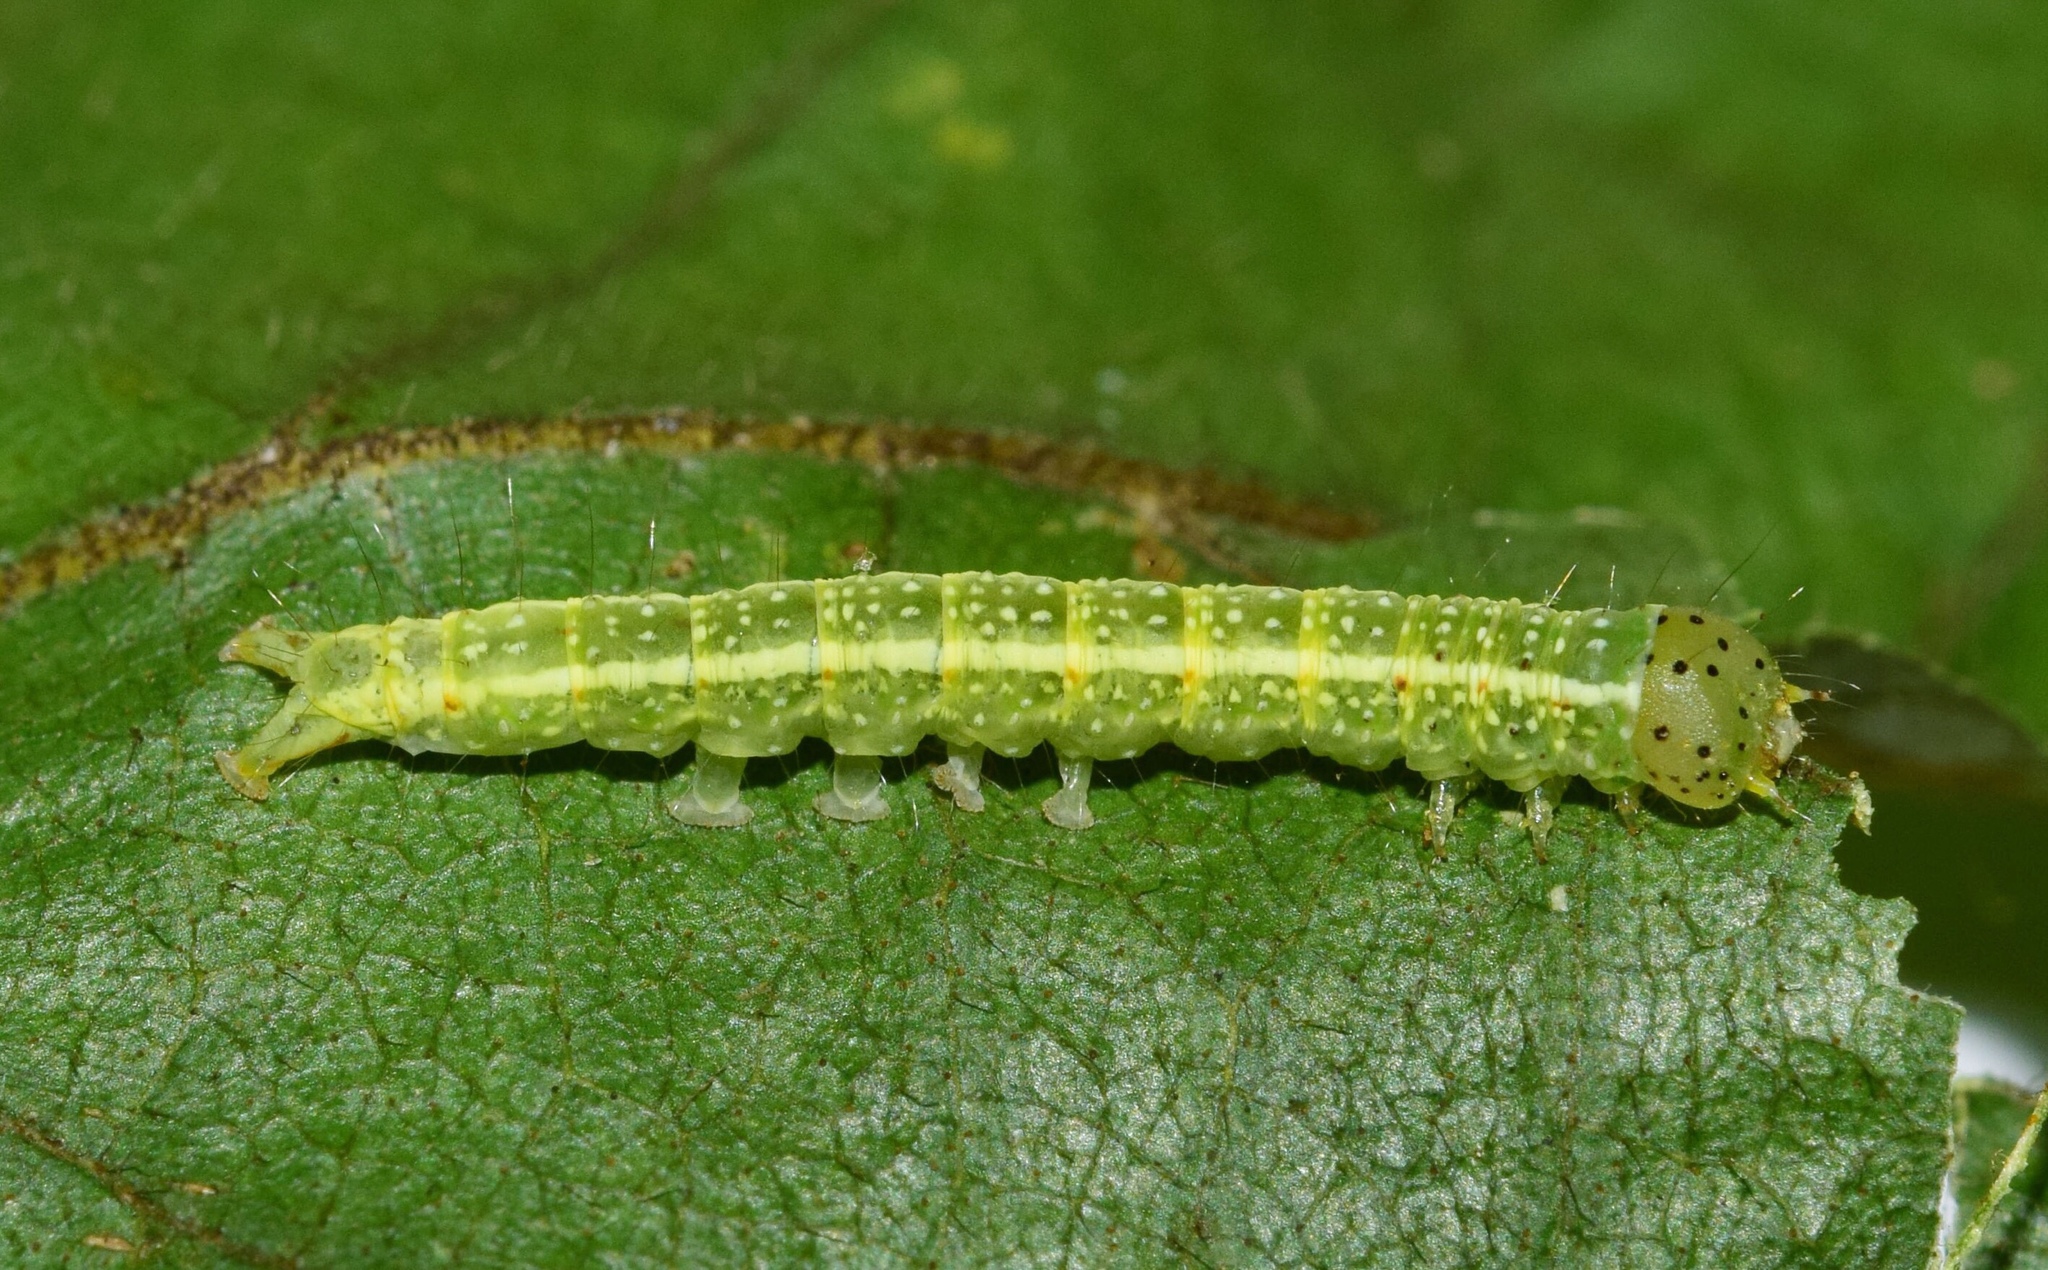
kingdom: Animalia
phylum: Arthropoda
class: Insecta
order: Lepidoptera
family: Nolidae
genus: Goniocalpe
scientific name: Goniocalpe heteromorpha
